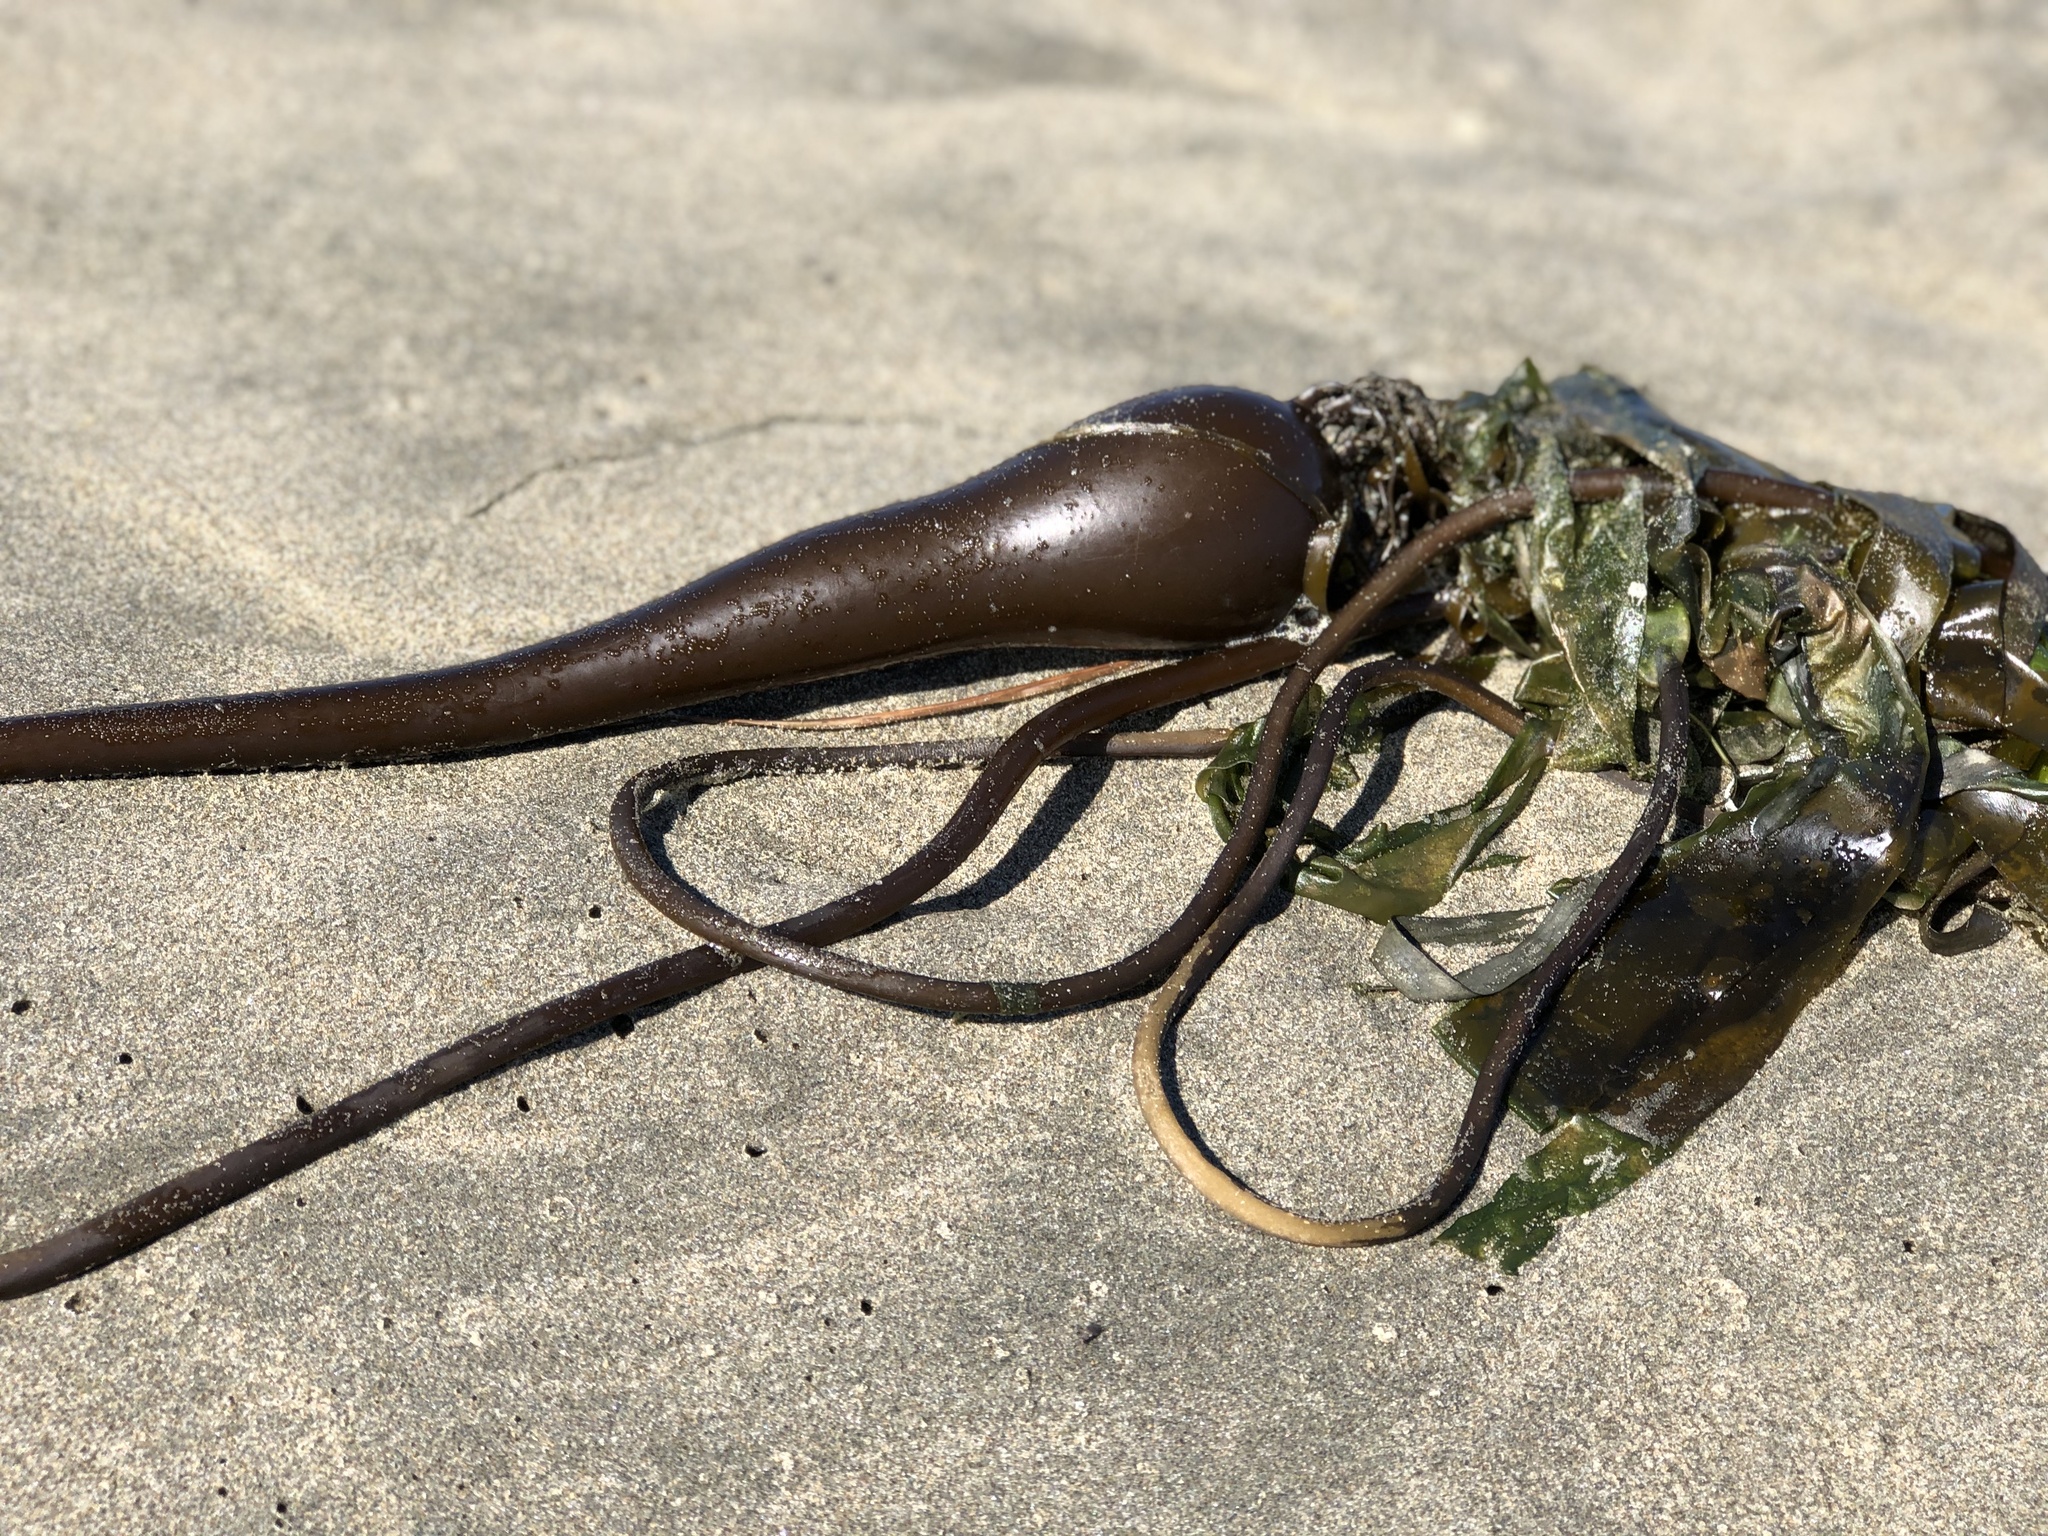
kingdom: Chromista
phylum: Ochrophyta
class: Phaeophyceae
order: Laminariales
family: Laminariaceae
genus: Nereocystis
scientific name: Nereocystis luetkeana
